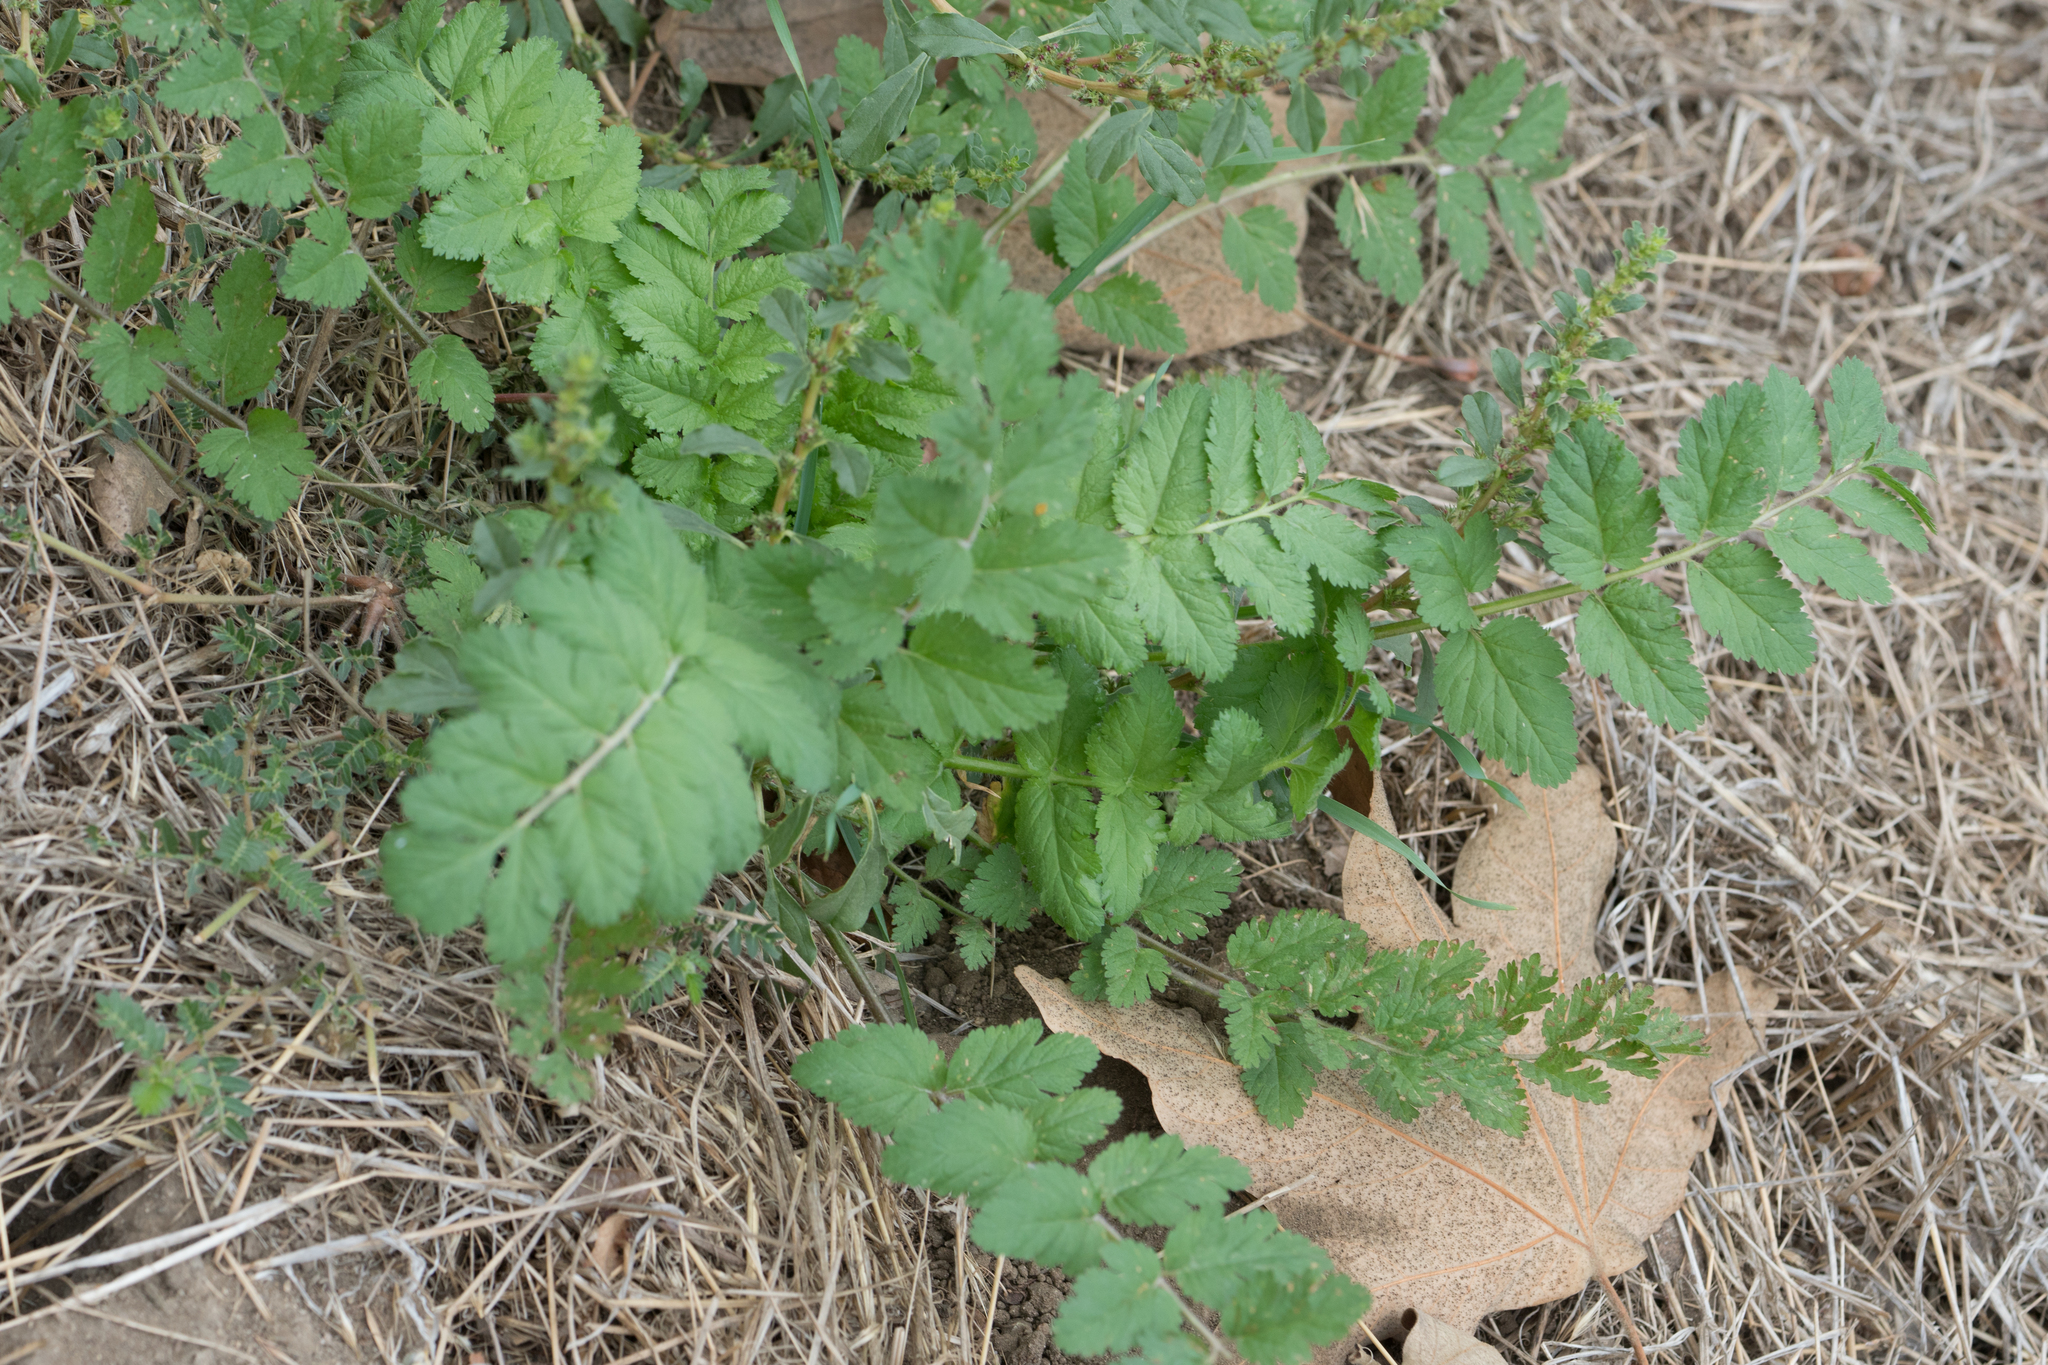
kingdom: Plantae
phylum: Tracheophyta
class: Magnoliopsida
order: Geraniales
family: Geraniaceae
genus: Erodium
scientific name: Erodium moschatum
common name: Musk stork's-bill
